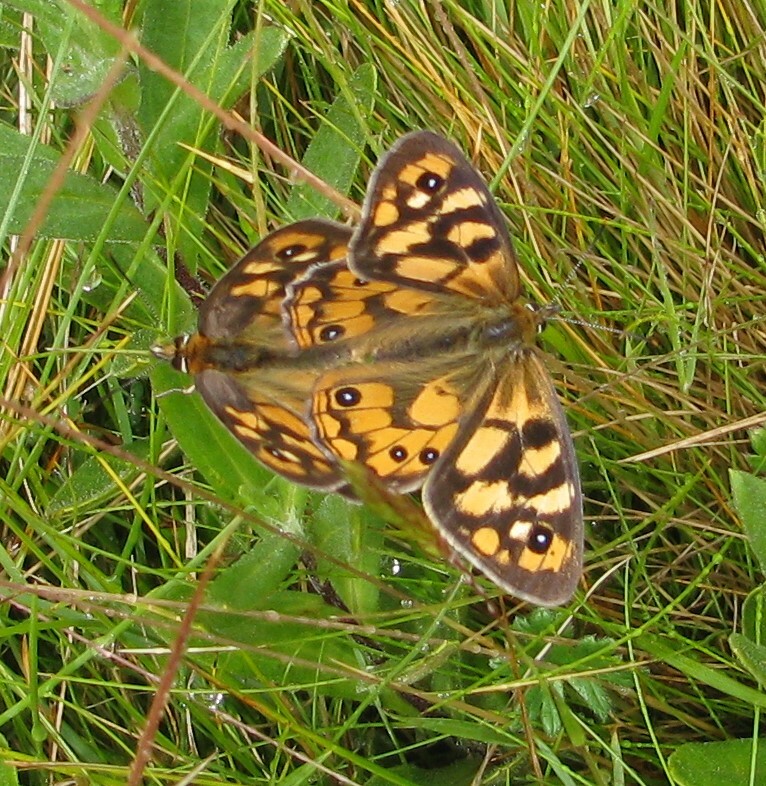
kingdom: Animalia
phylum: Arthropoda
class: Insecta
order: Lepidoptera
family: Nymphalidae
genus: Heteronympha
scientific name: Heteronympha penelope
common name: Shouldered brown
